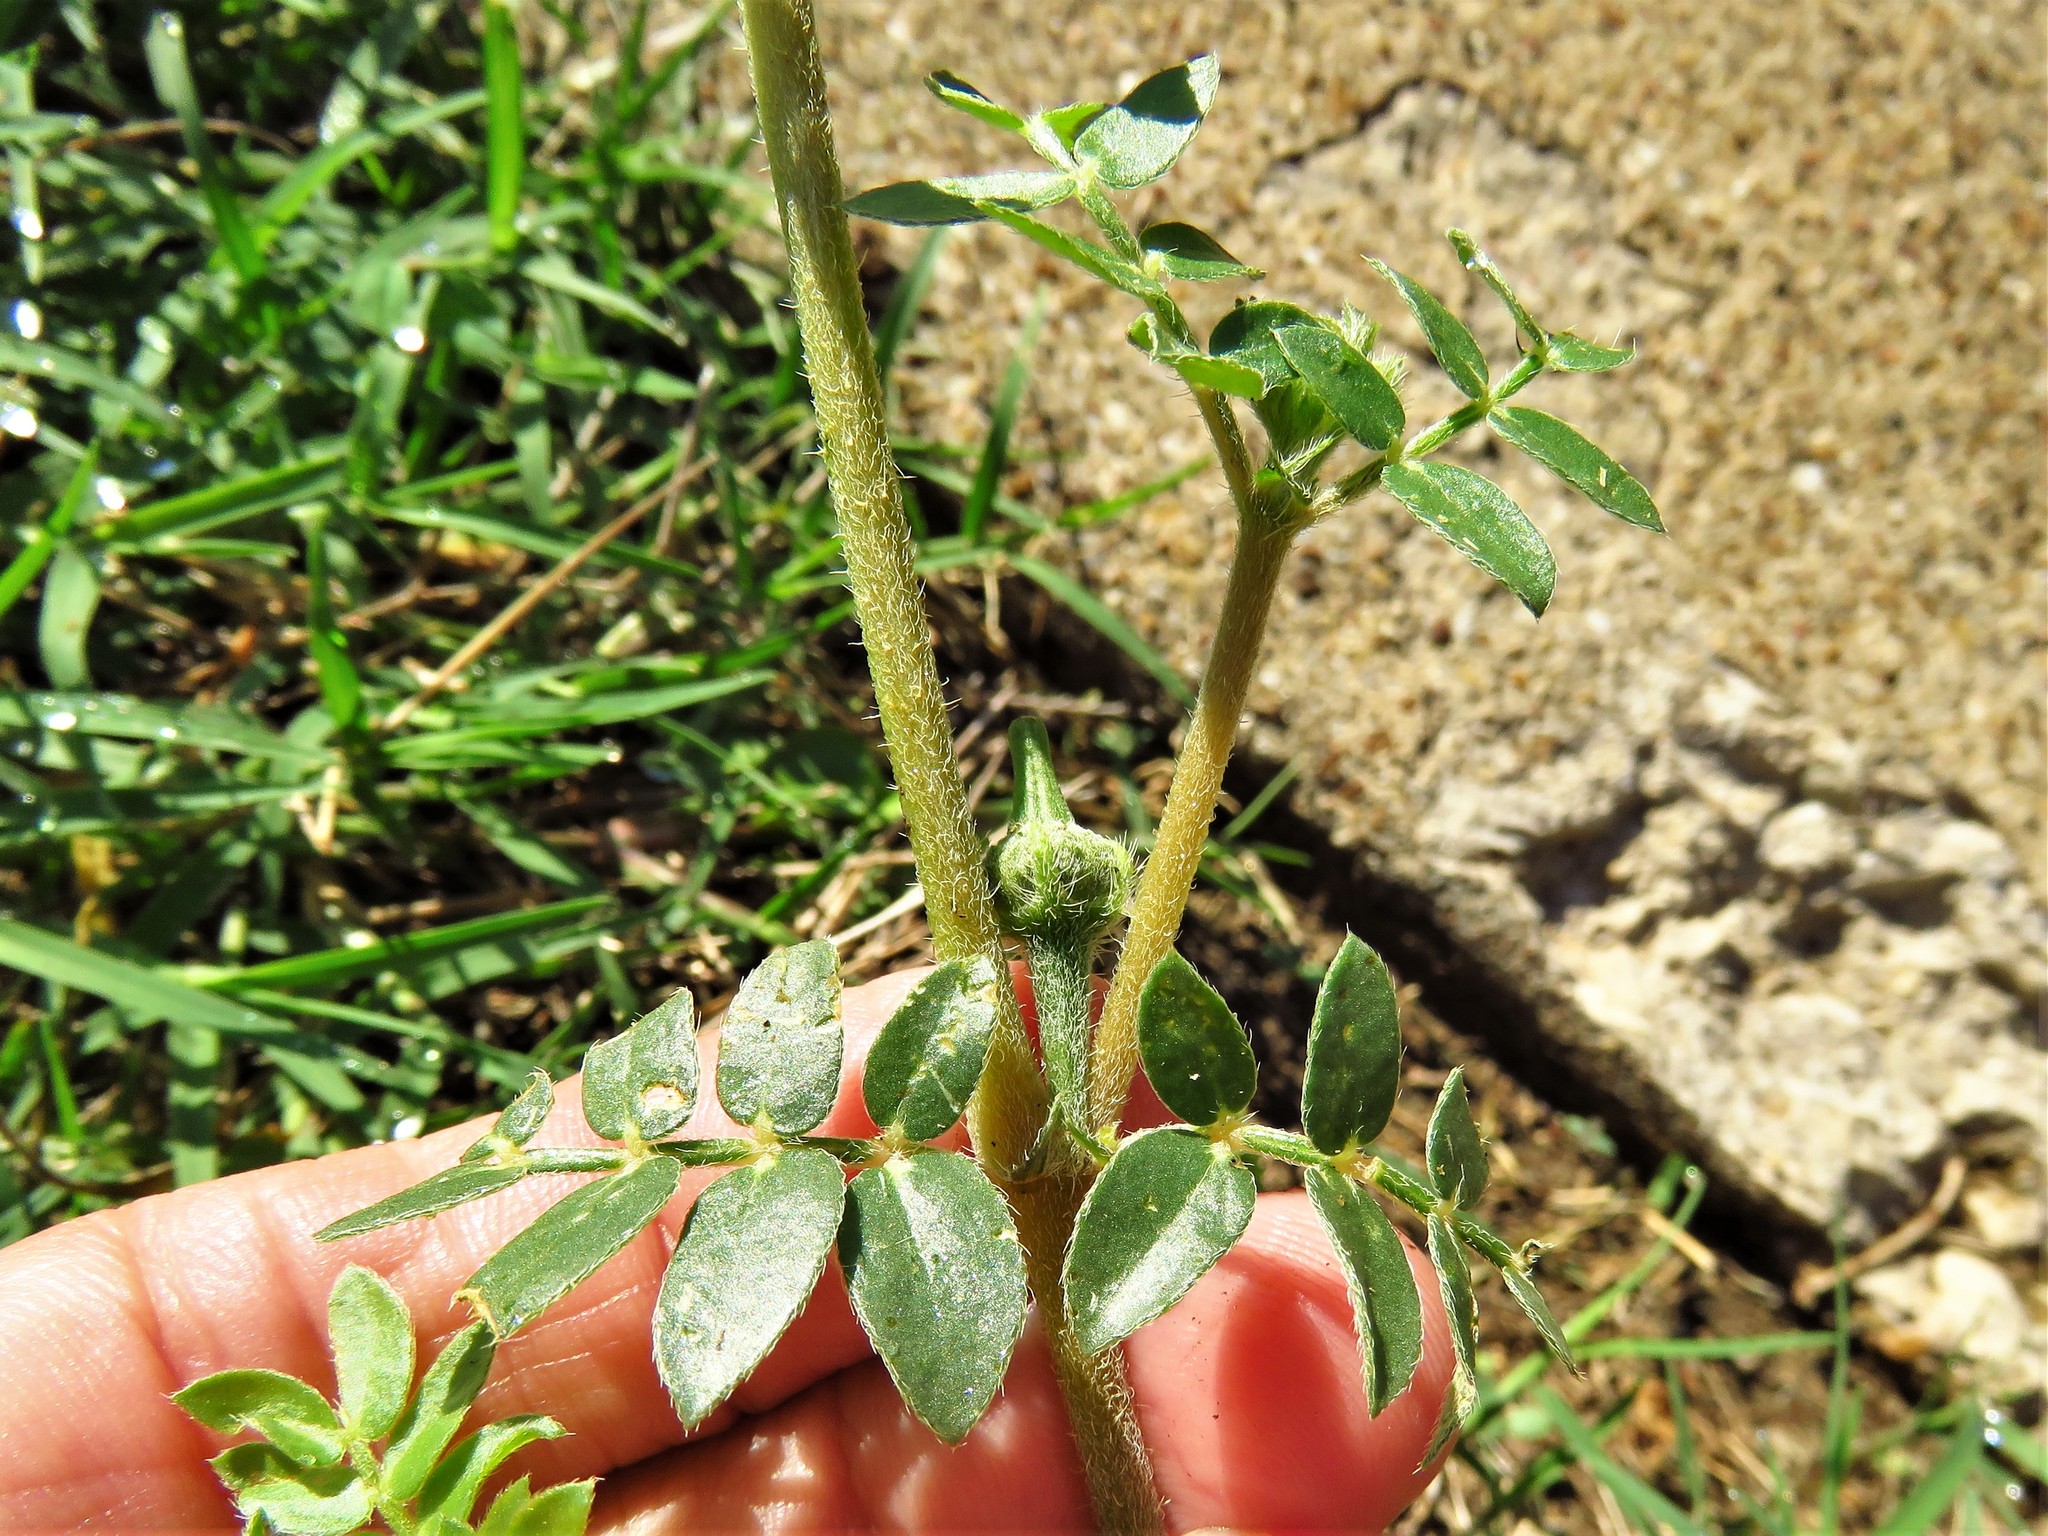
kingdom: Plantae
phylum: Tracheophyta
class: Magnoliopsida
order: Zygophyllales
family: Zygophyllaceae
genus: Kallstroemia
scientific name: Kallstroemia parviflora
